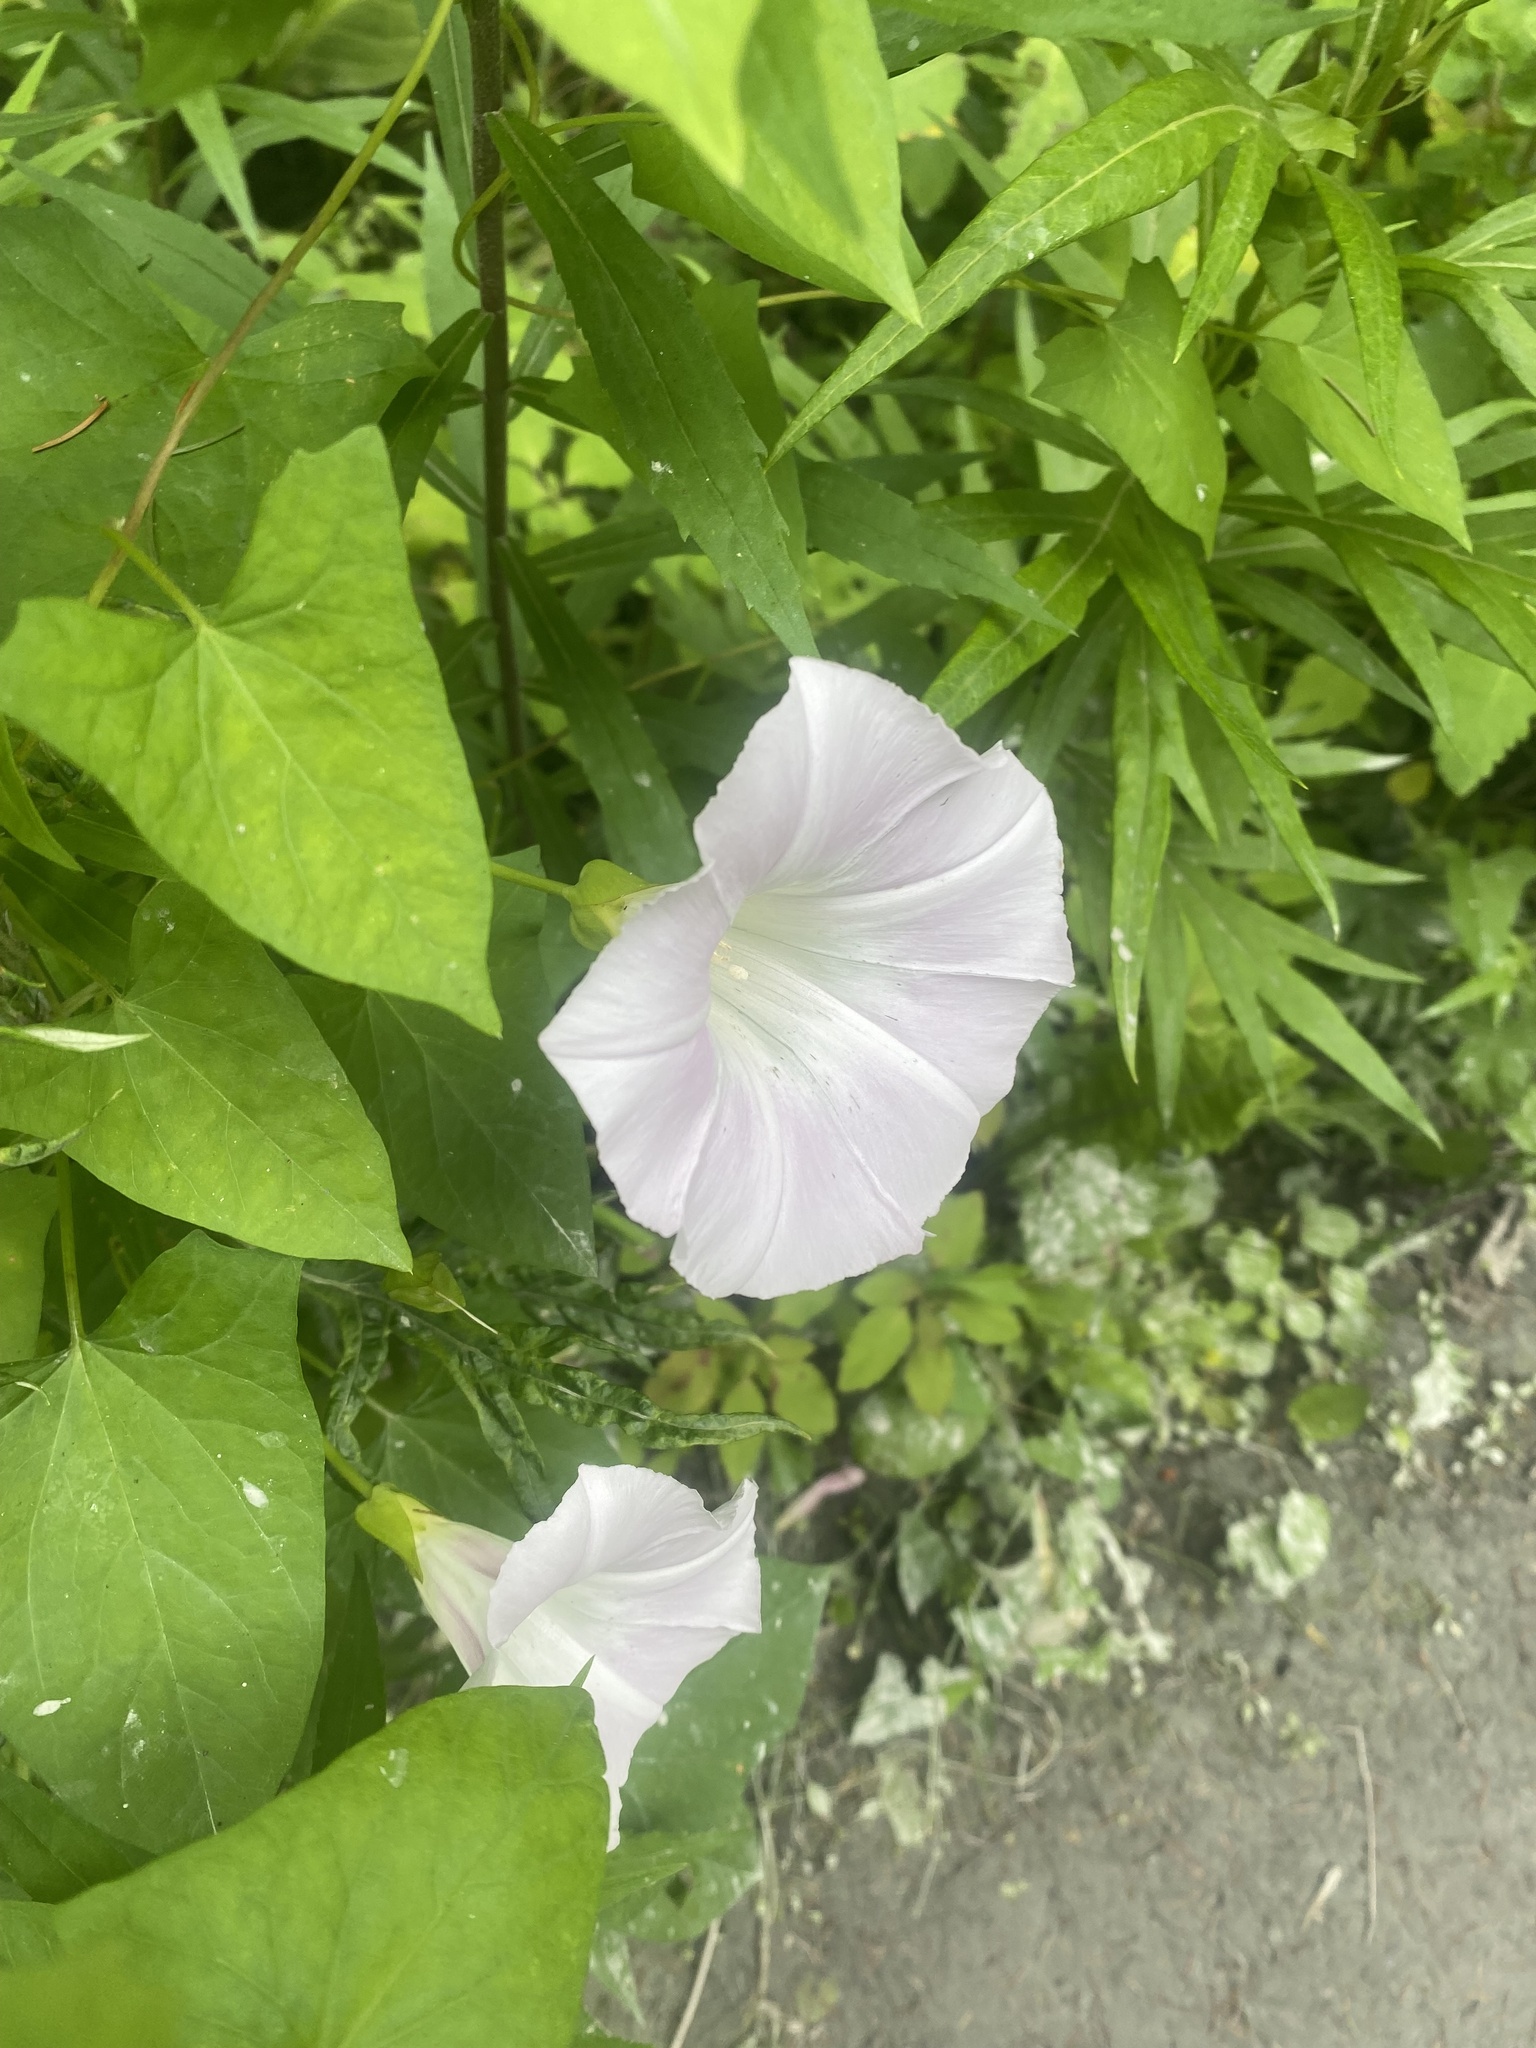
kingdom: Plantae
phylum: Tracheophyta
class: Magnoliopsida
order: Solanales
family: Convolvulaceae
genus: Calystegia
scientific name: Calystegia sepium
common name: Hedge bindweed
